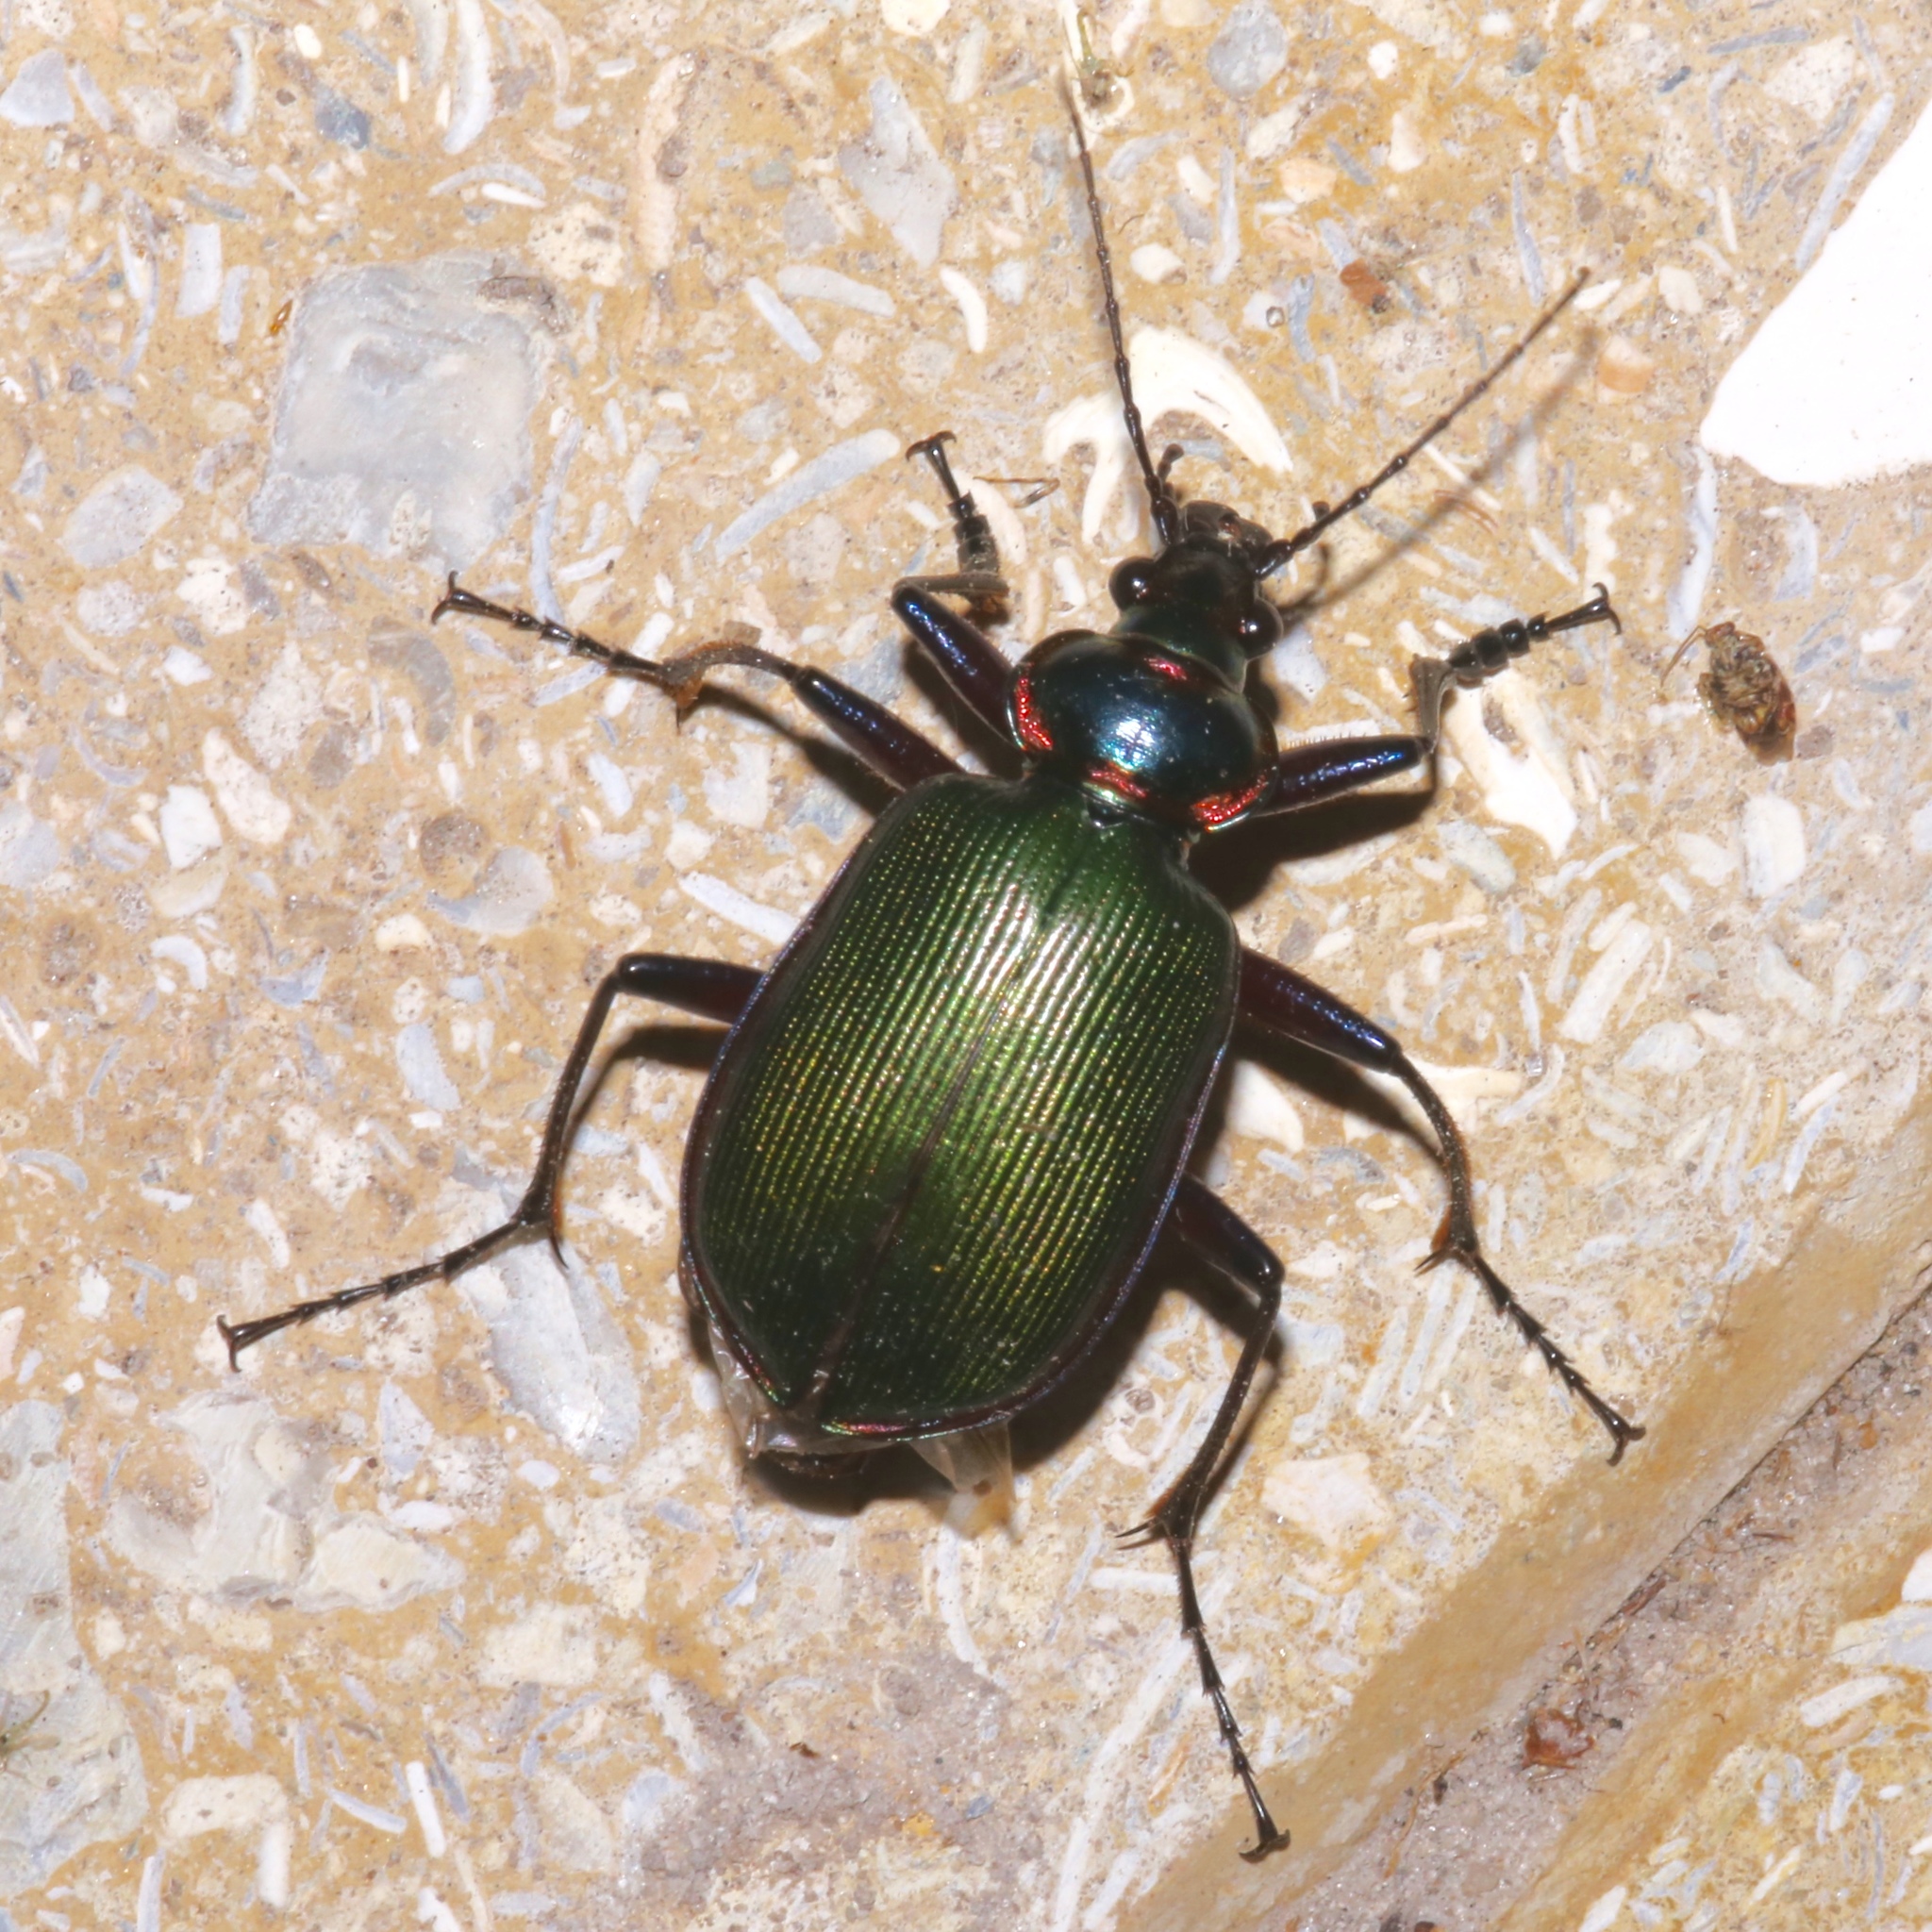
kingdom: Animalia
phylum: Arthropoda
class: Insecta
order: Coleoptera
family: Carabidae
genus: Calosoma
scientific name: Calosoma scrutator
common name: Fiery searcher beetle
